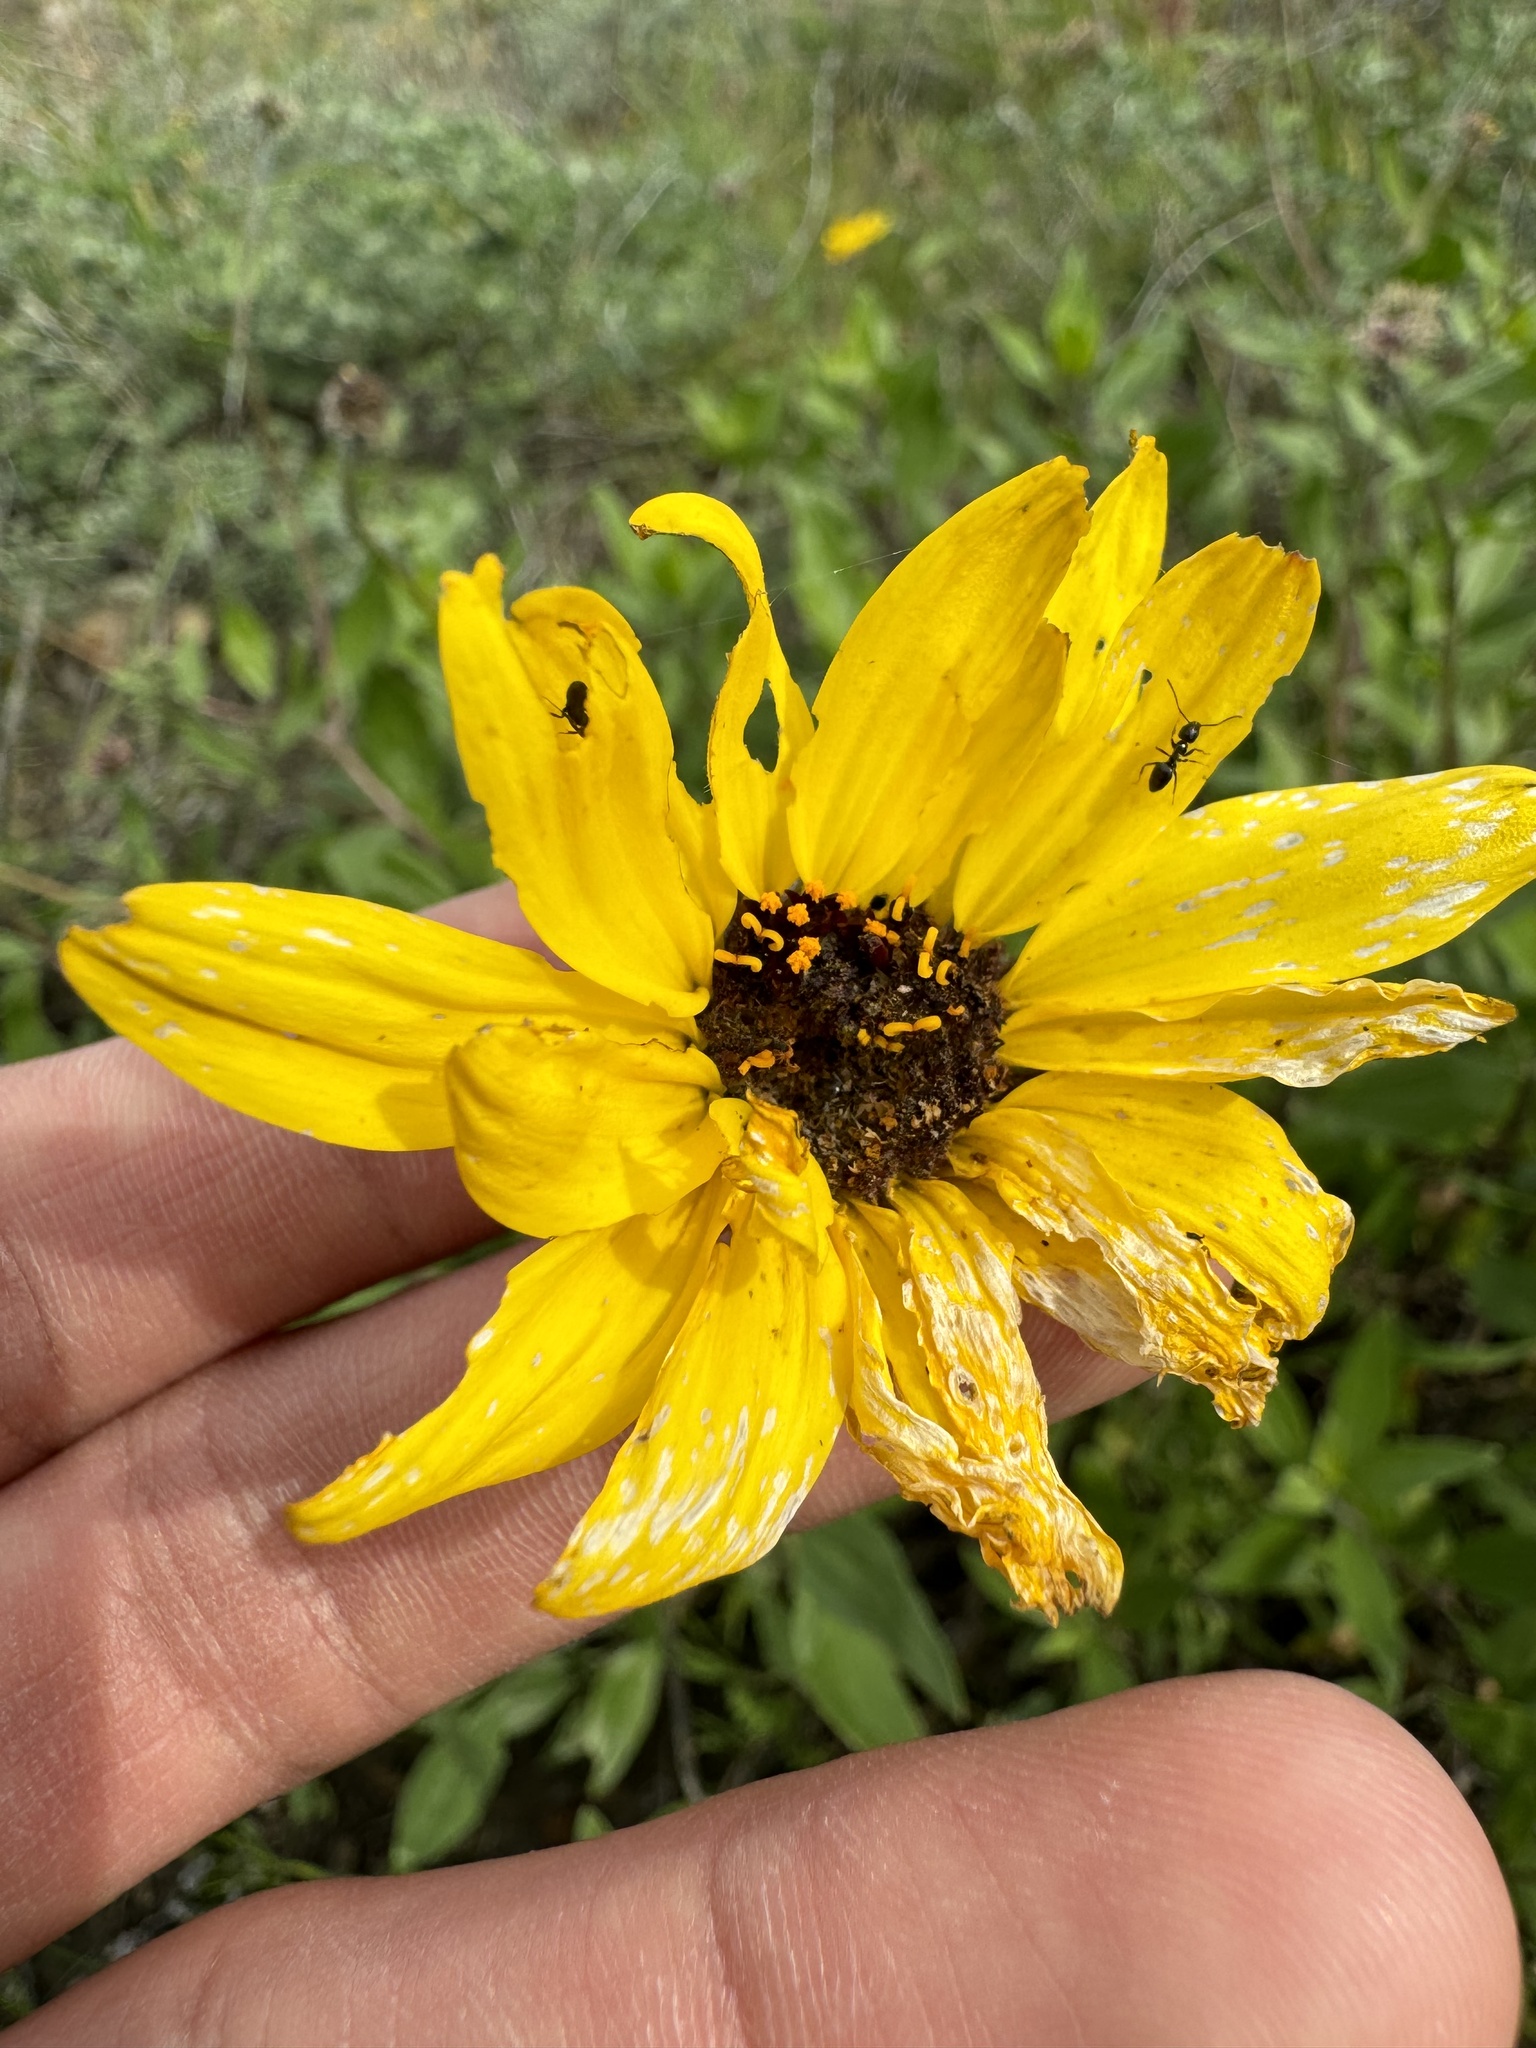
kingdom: Plantae
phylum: Tracheophyta
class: Magnoliopsida
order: Asterales
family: Asteraceae
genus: Encelia
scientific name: Encelia californica
